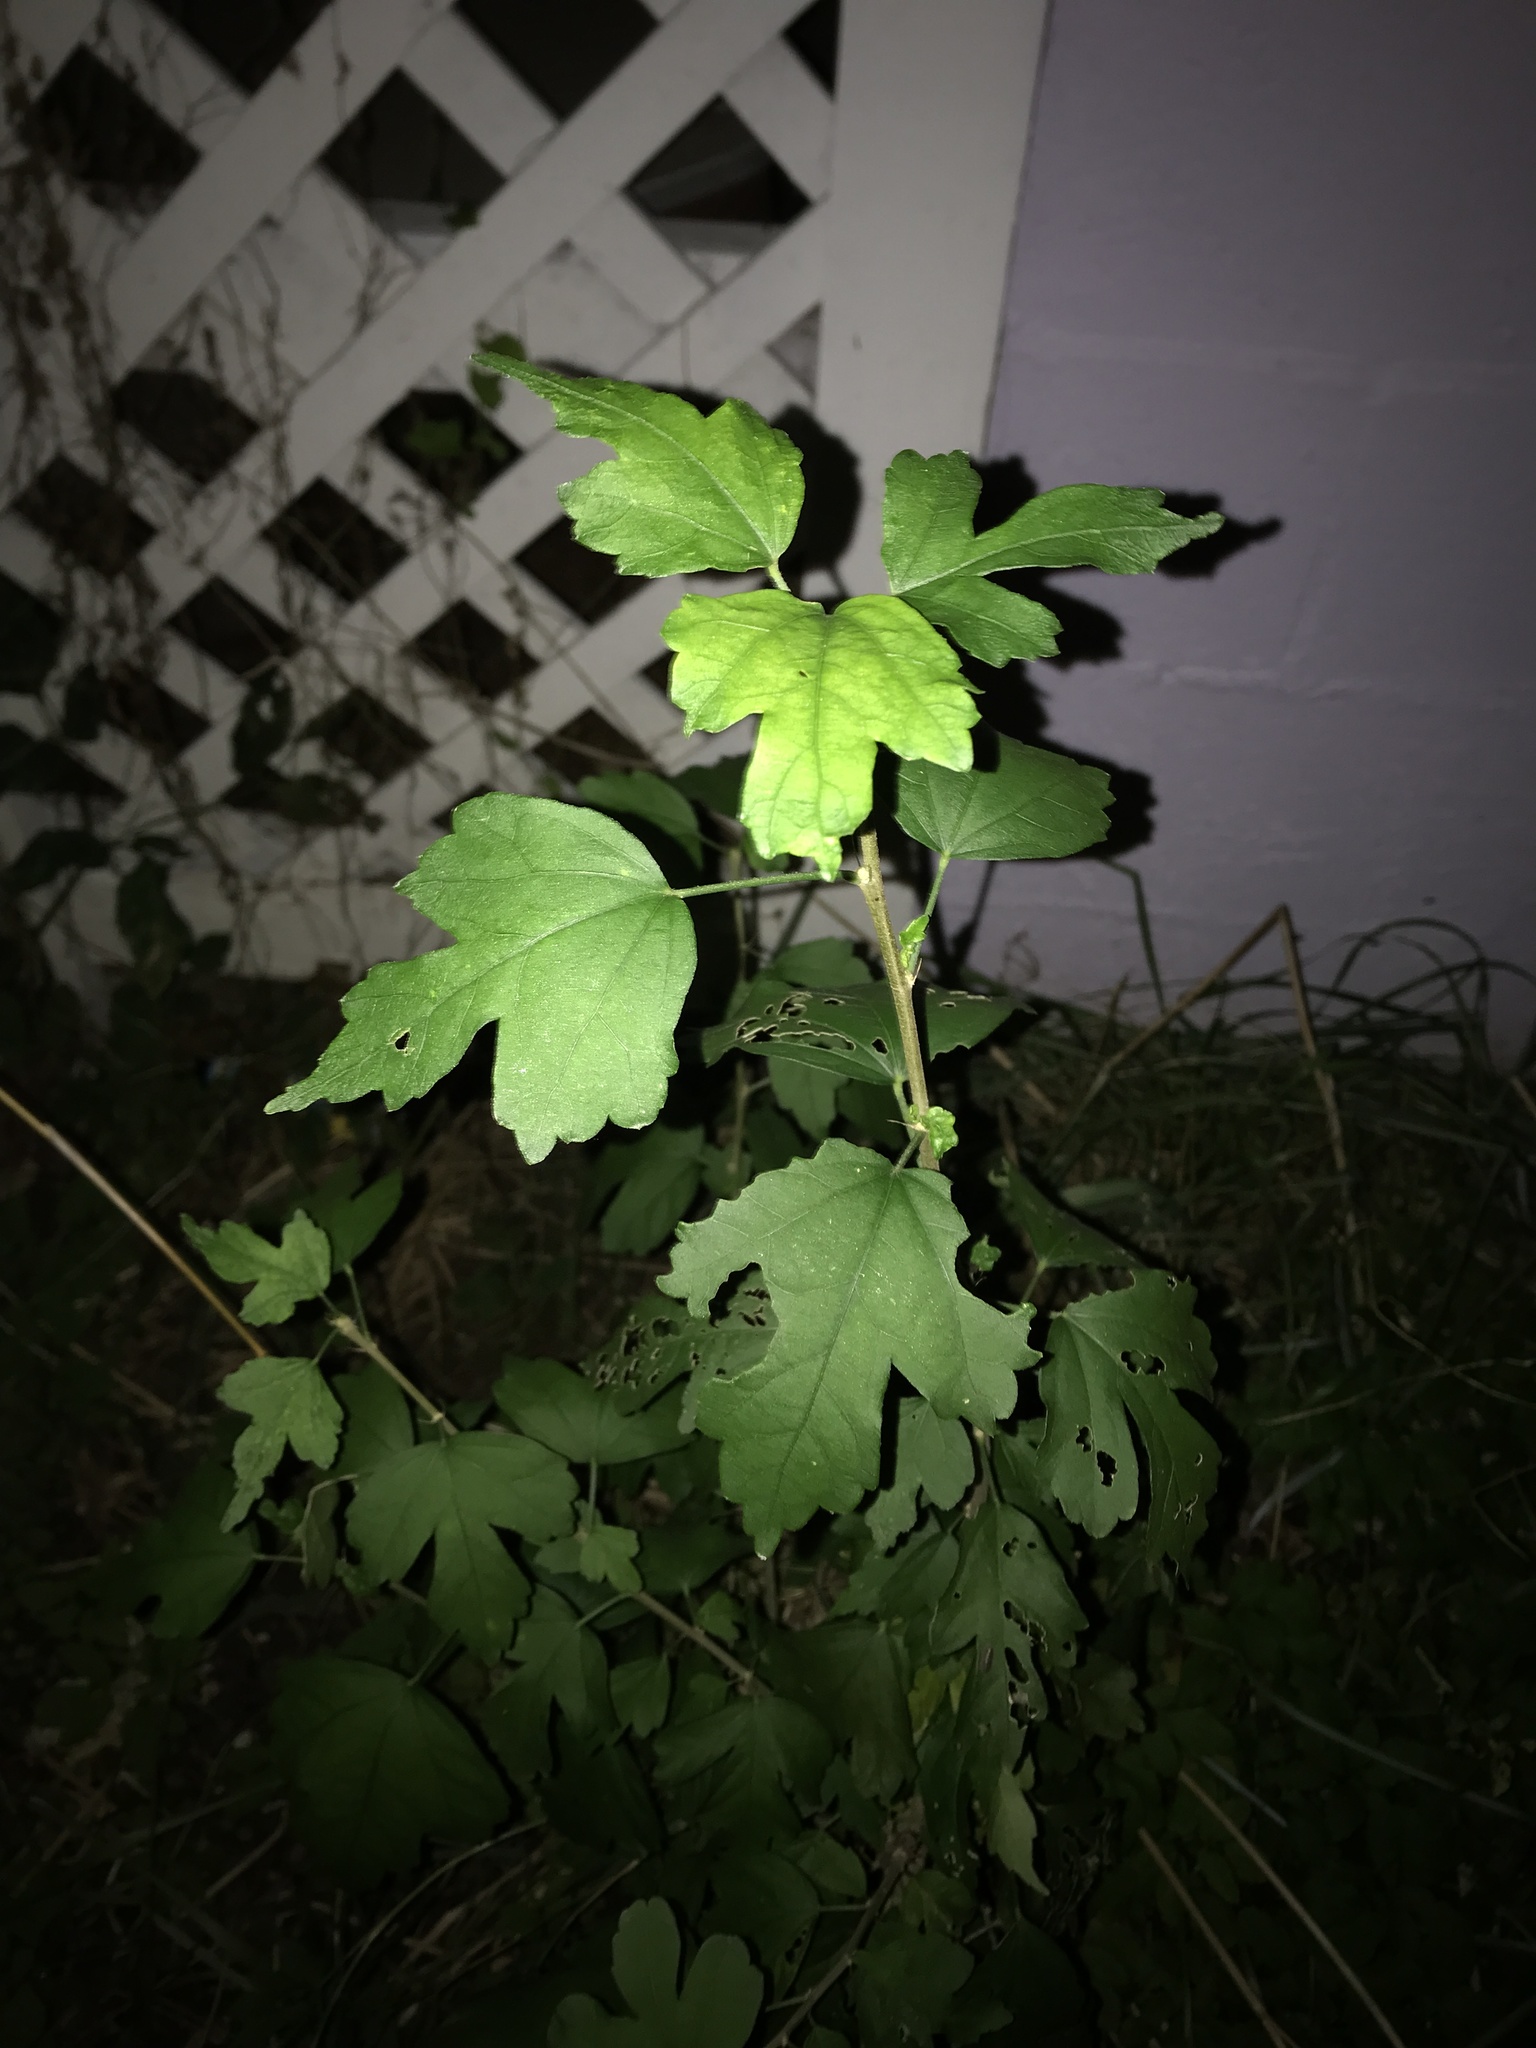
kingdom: Plantae
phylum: Tracheophyta
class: Magnoliopsida
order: Malvales
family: Malvaceae
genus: Hibiscus
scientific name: Hibiscus syriacus
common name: Syrian ketmia
